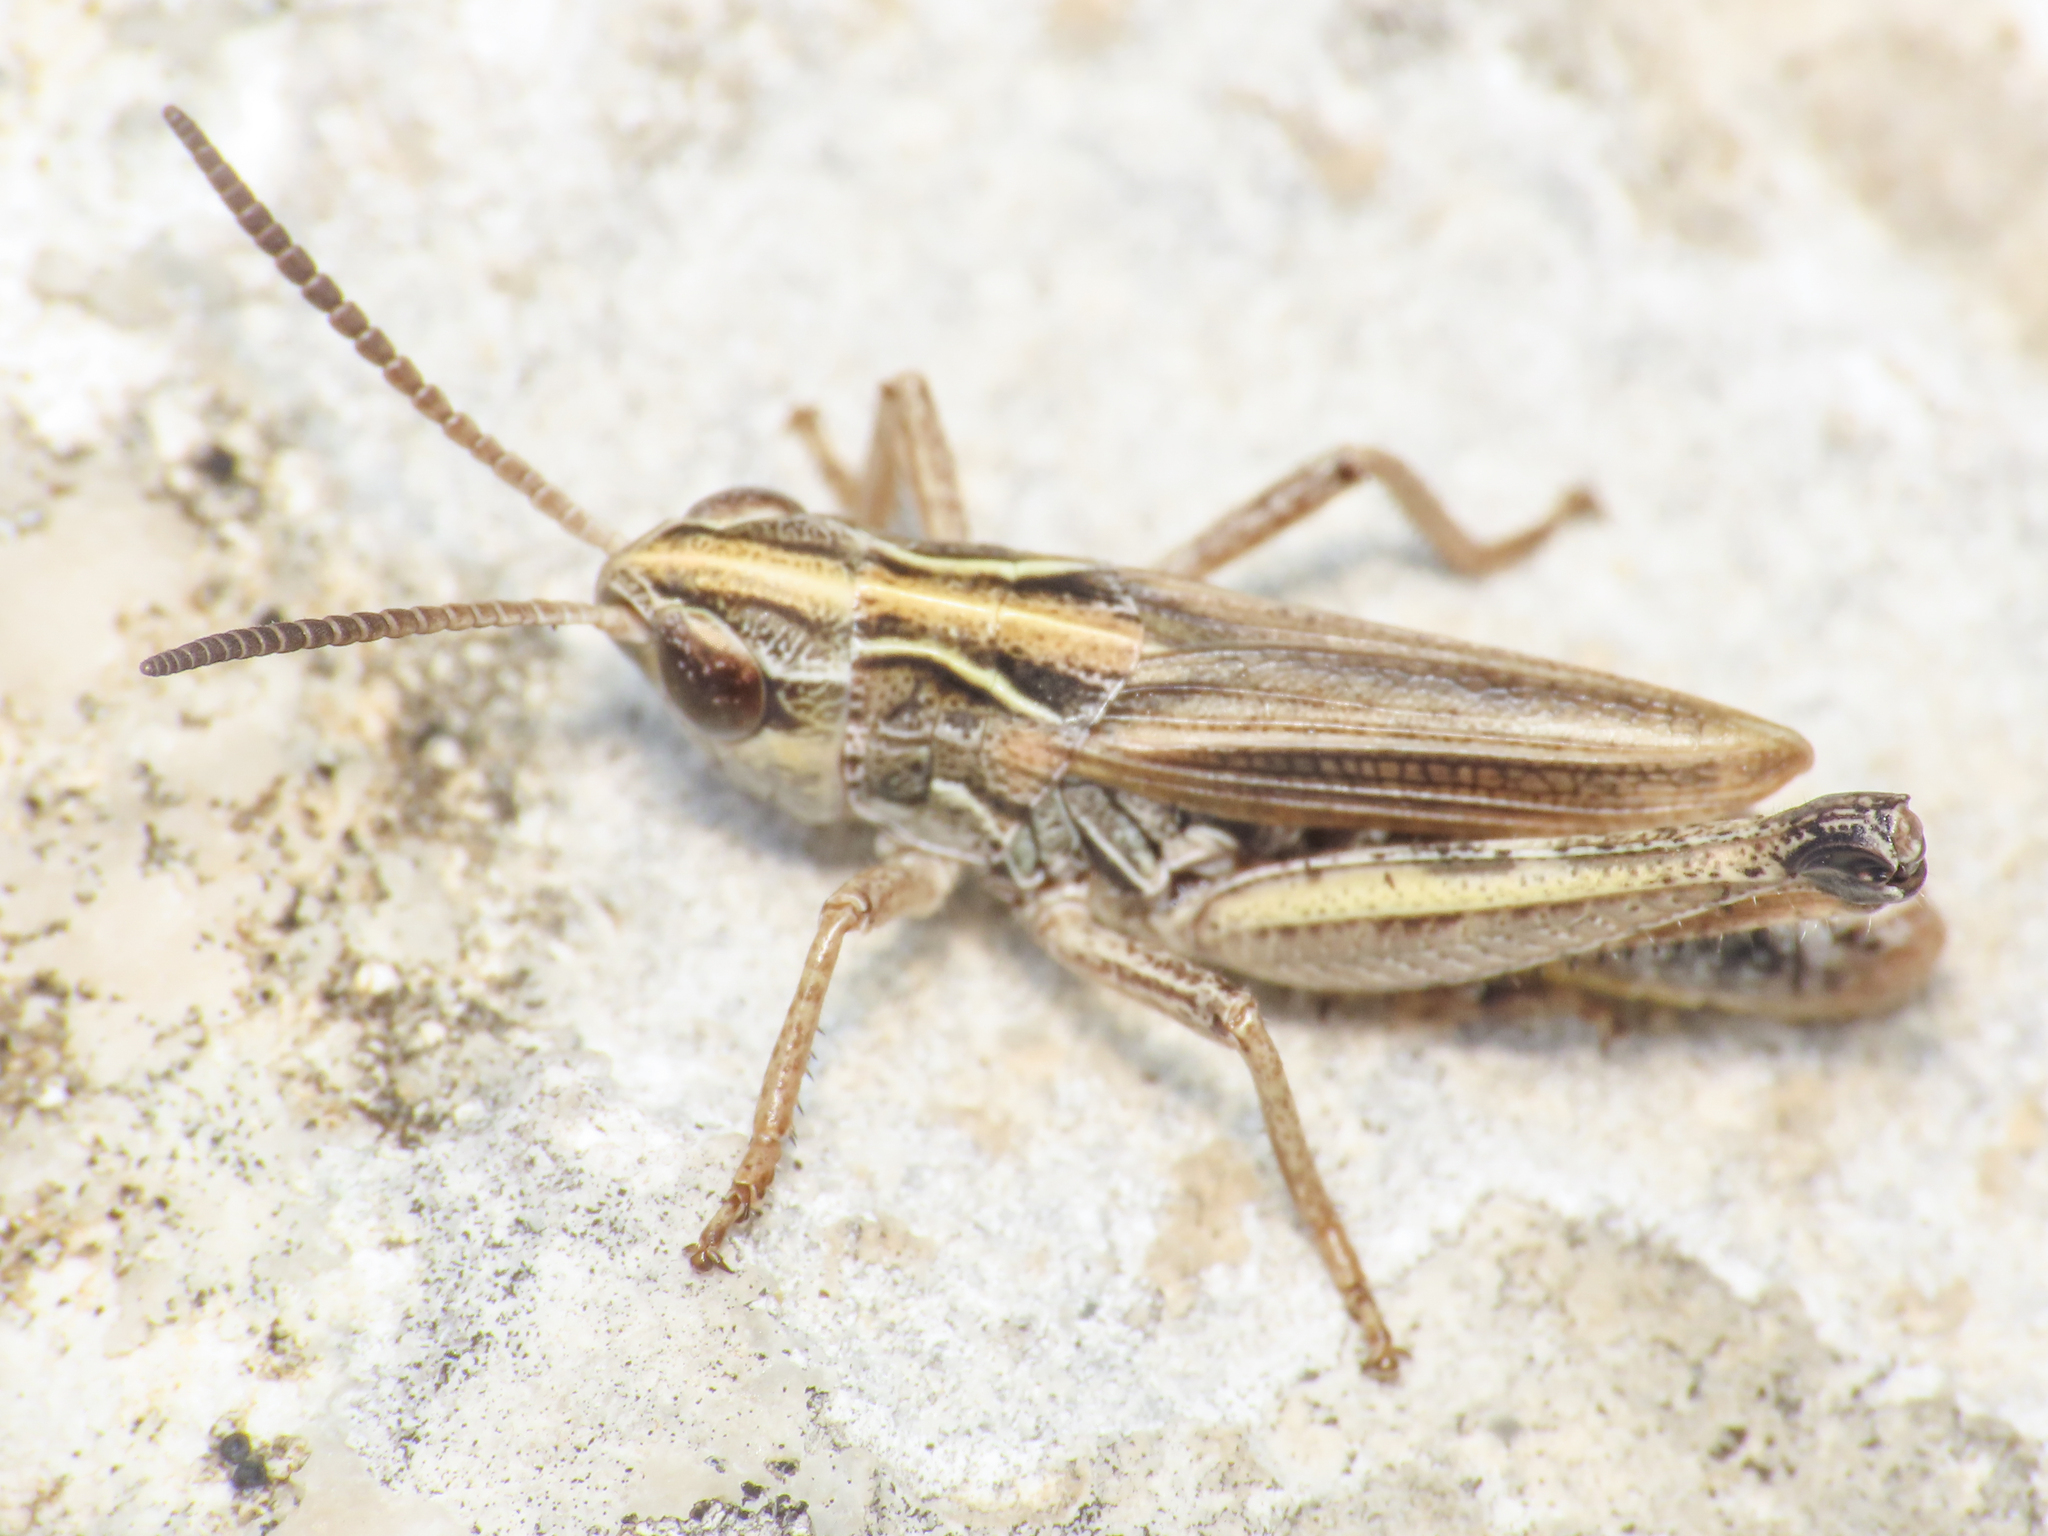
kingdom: Animalia
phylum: Arthropoda
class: Insecta
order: Orthoptera
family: Acrididae
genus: Stenobothrus
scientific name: Stenobothrus apenninus
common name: Apennine grasshopper
